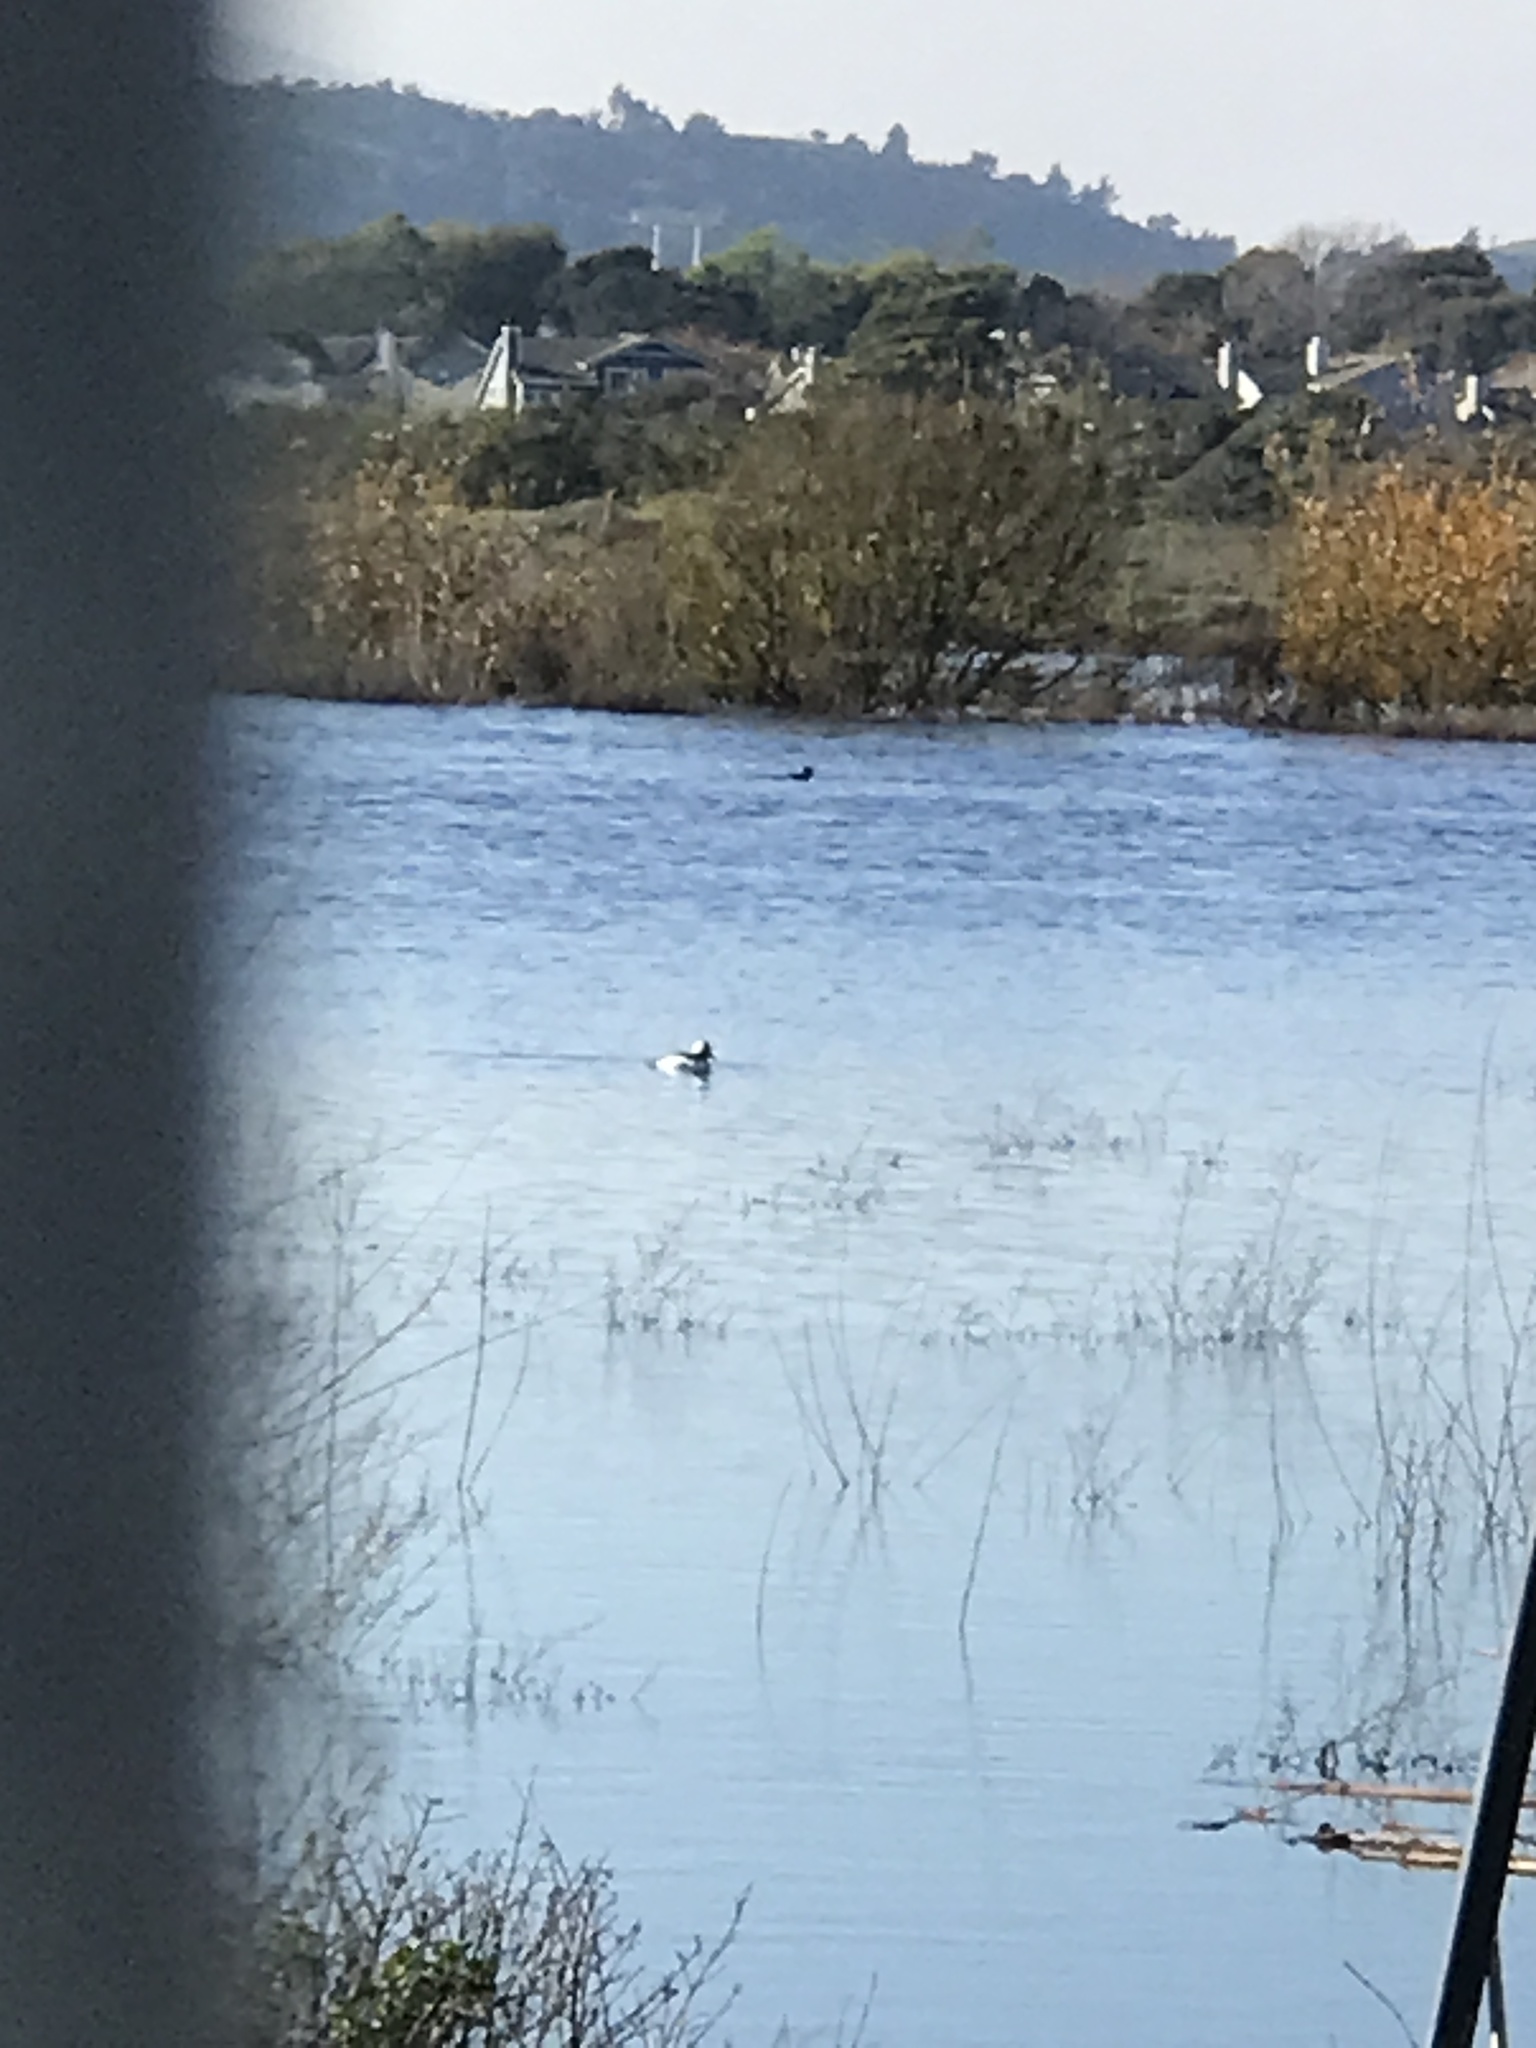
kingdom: Animalia
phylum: Chordata
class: Aves
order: Anseriformes
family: Anatidae
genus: Bucephala
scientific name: Bucephala albeola
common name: Bufflehead
